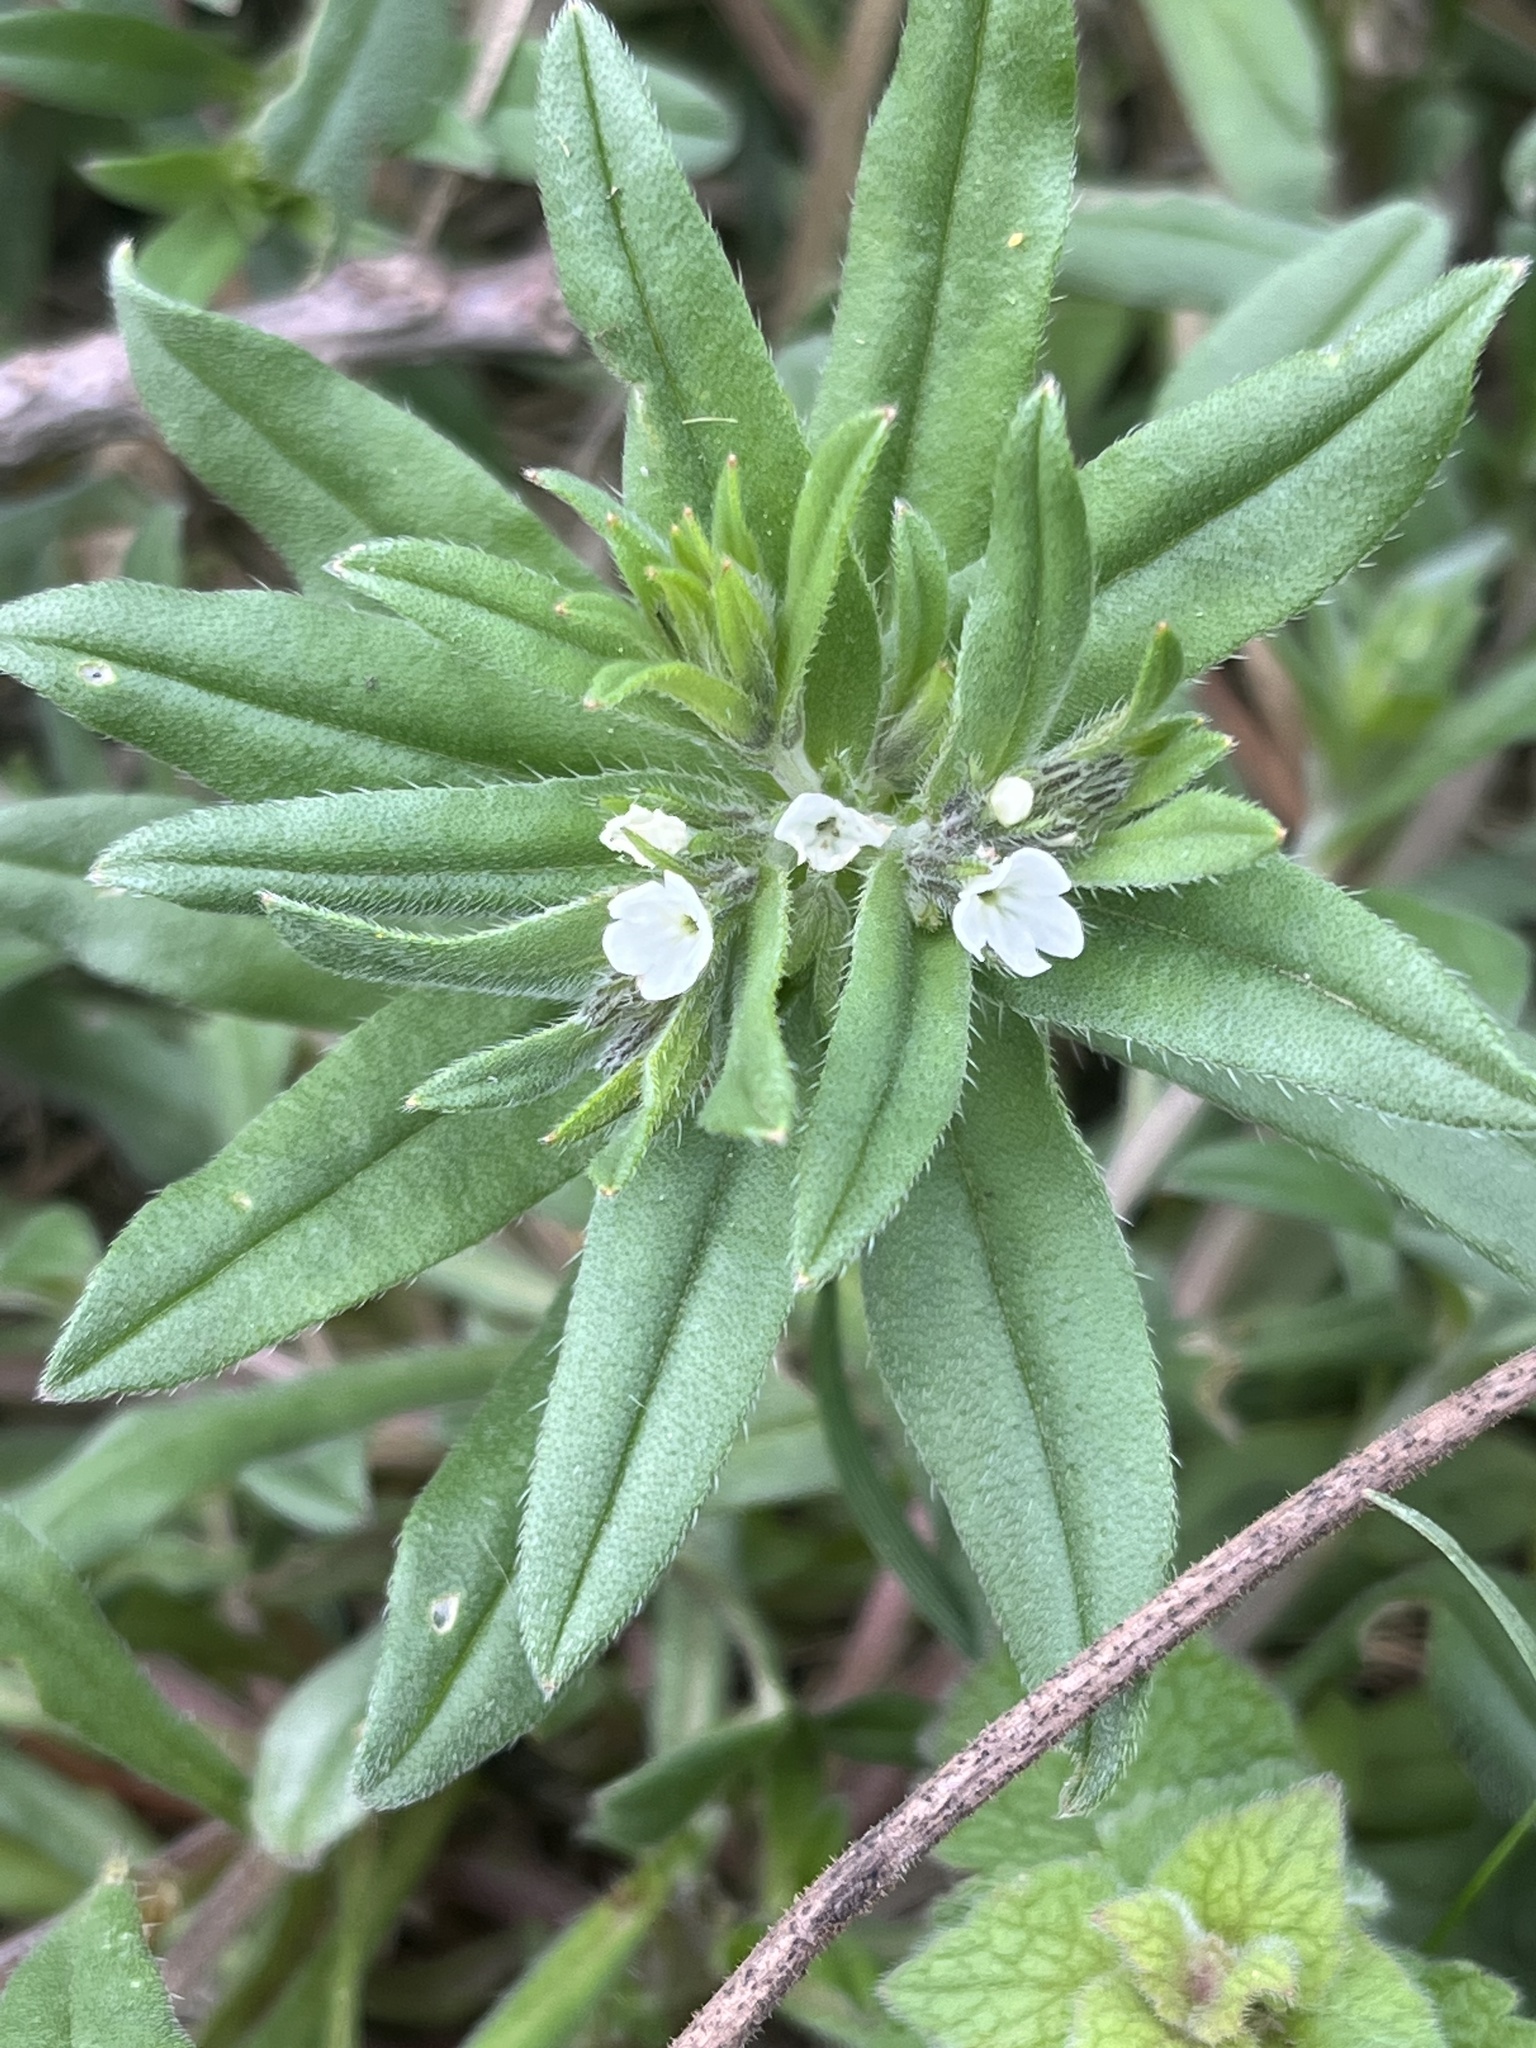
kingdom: Plantae
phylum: Tracheophyta
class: Magnoliopsida
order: Boraginales
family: Boraginaceae
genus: Buglossoides
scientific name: Buglossoides arvensis
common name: Corn gromwell
